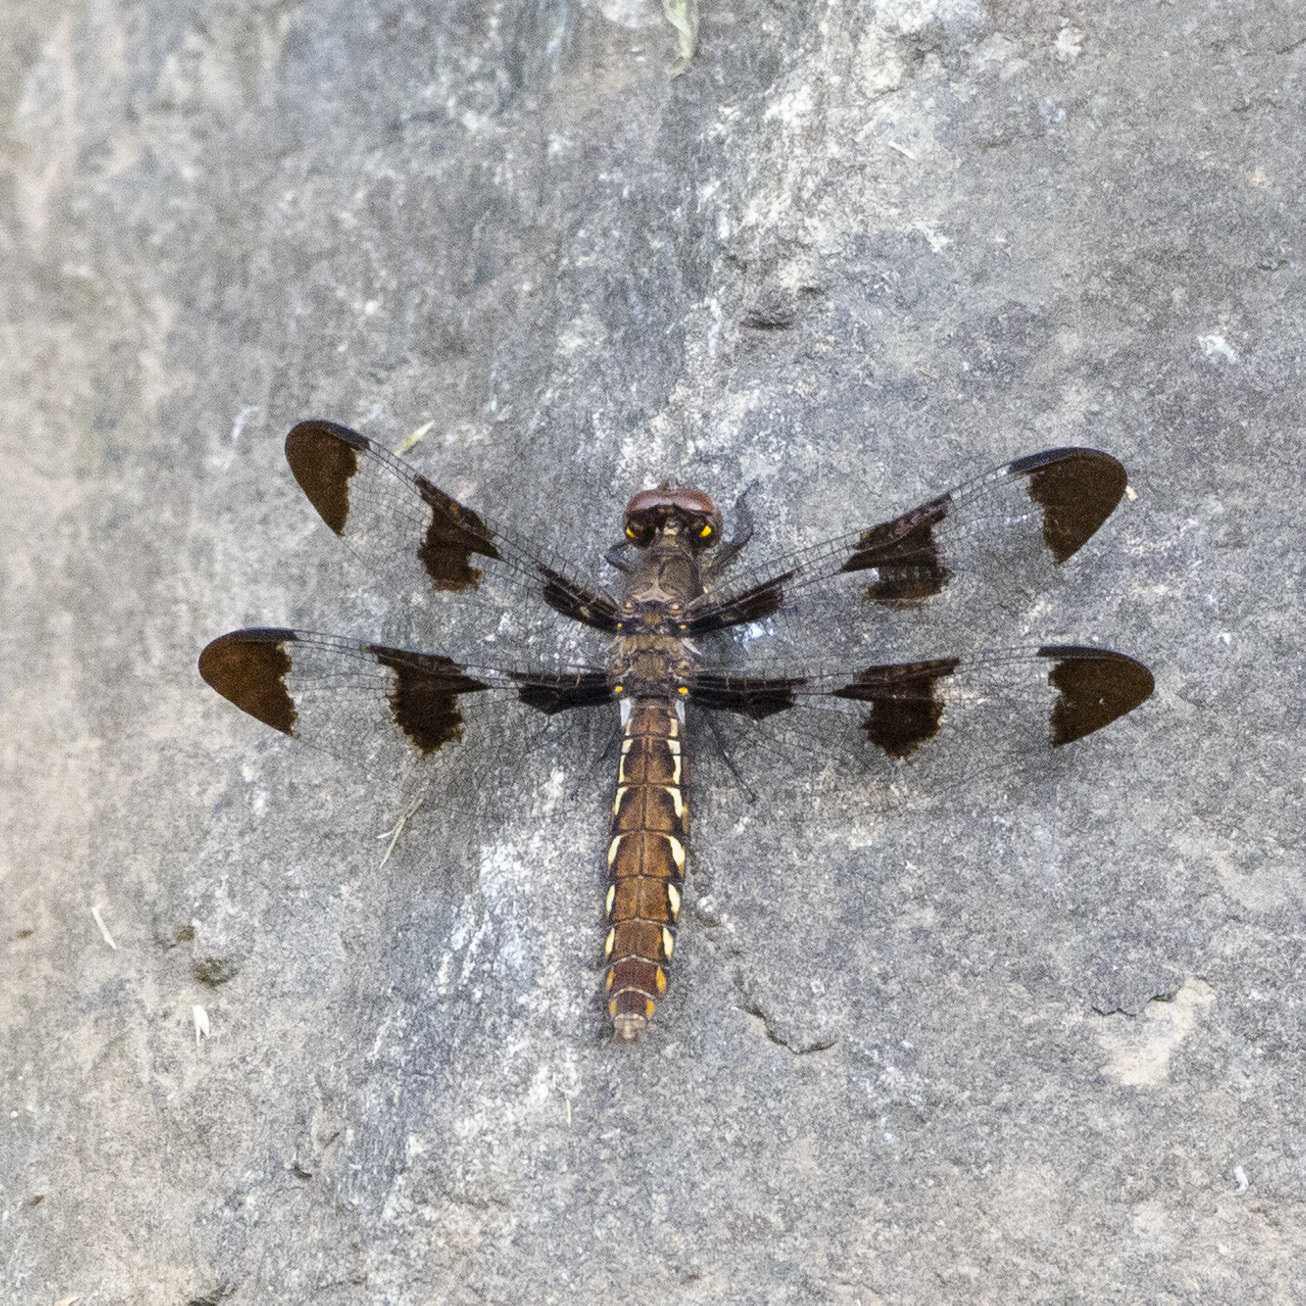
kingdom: Animalia
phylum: Arthropoda
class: Insecta
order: Odonata
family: Libellulidae
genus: Plathemis
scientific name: Plathemis lydia
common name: Common whitetail
